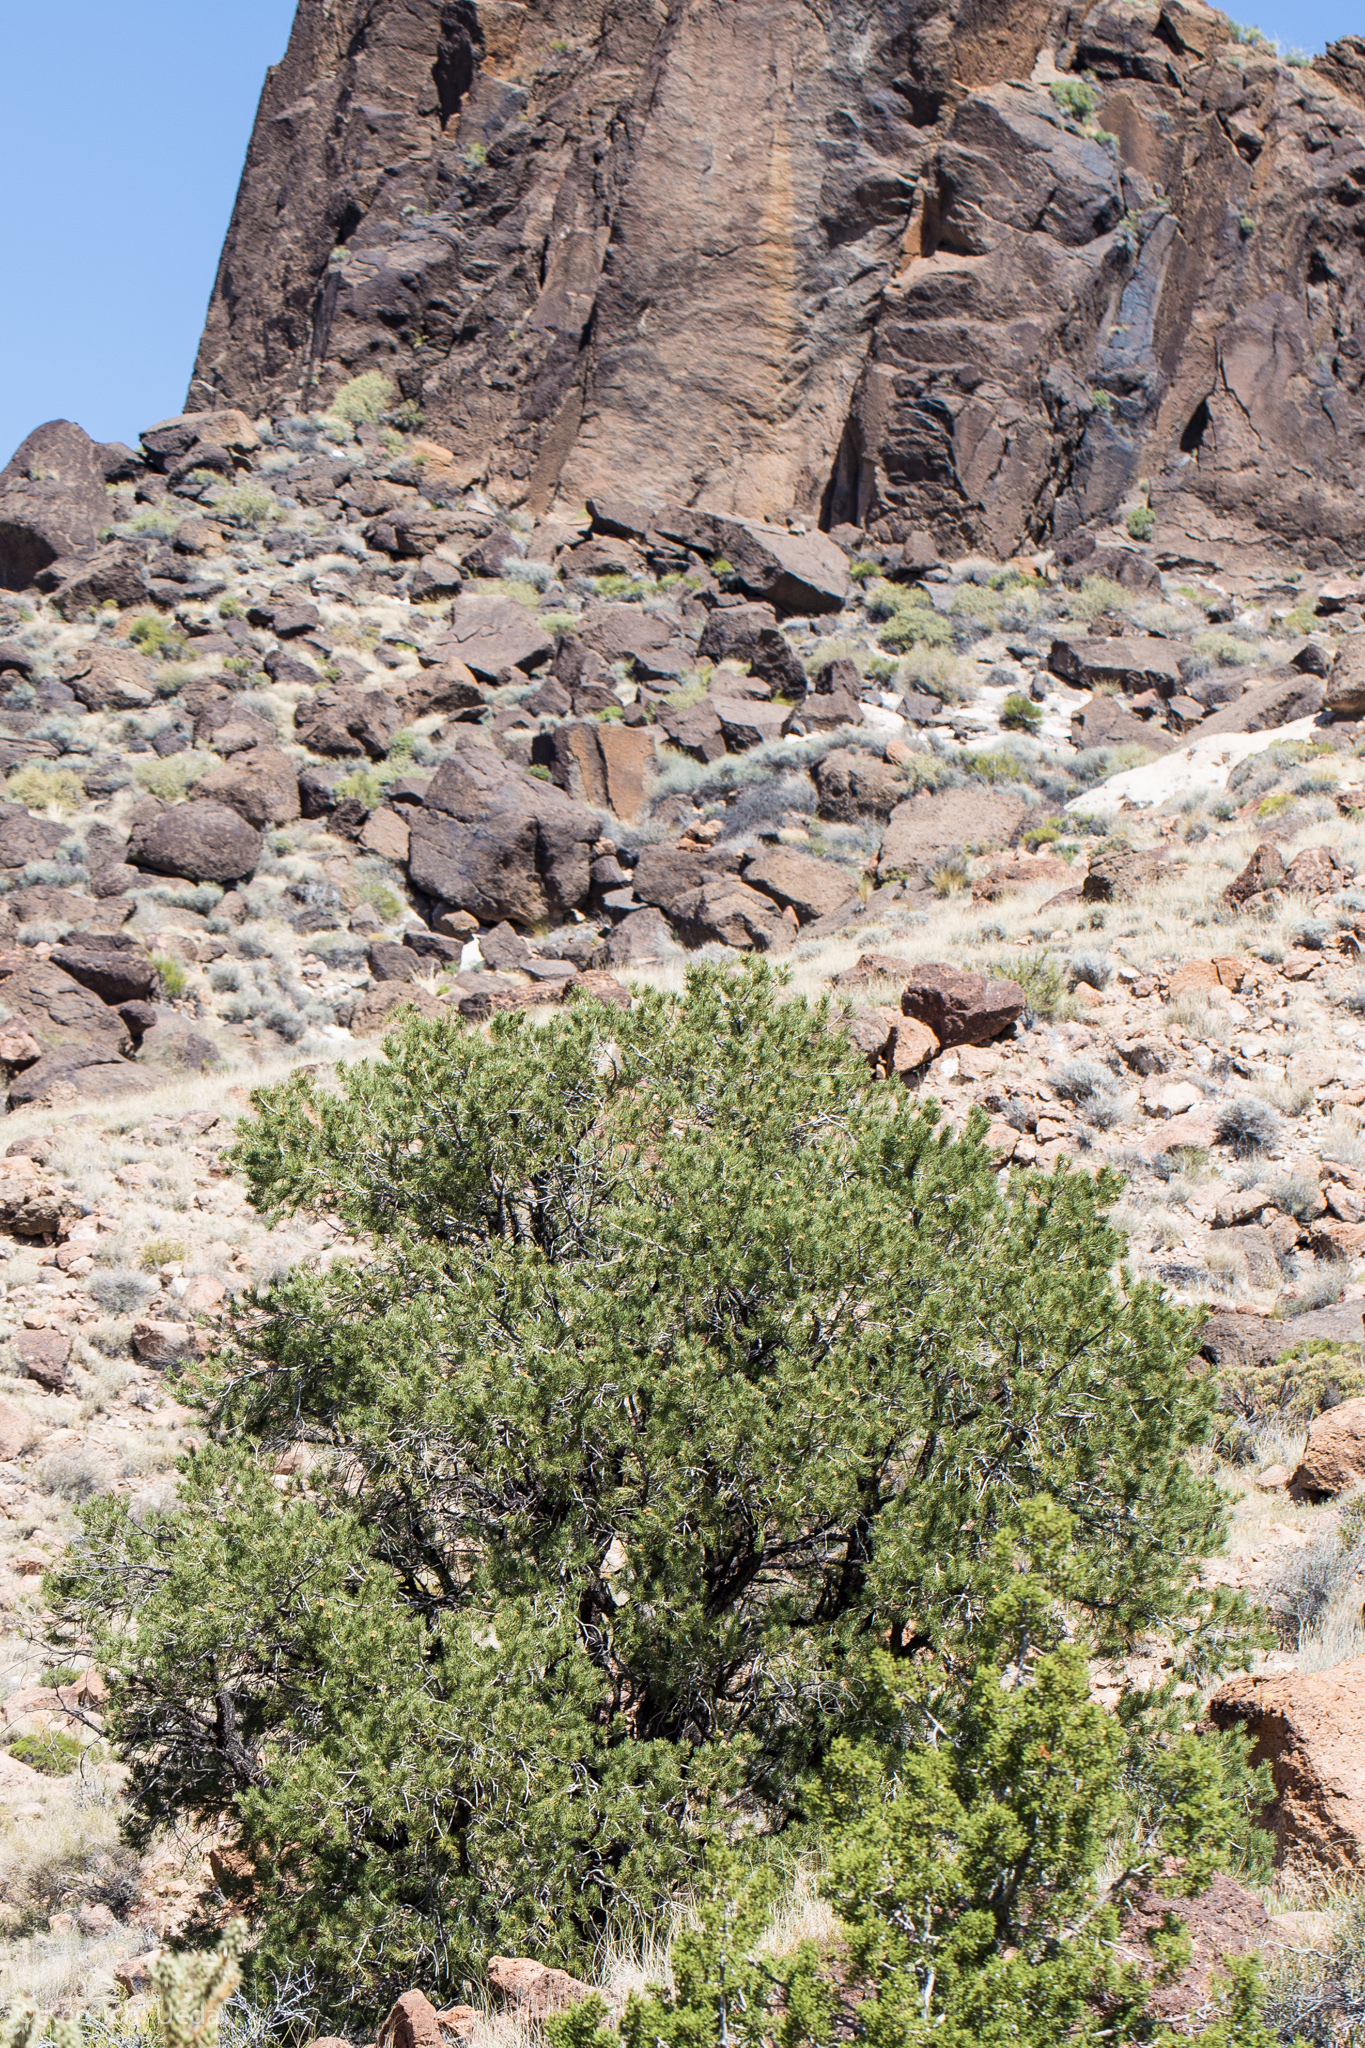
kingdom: Plantae
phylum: Tracheophyta
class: Pinopsida
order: Pinales
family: Pinaceae
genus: Pinus
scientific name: Pinus monophylla
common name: One-leaved nut pine
